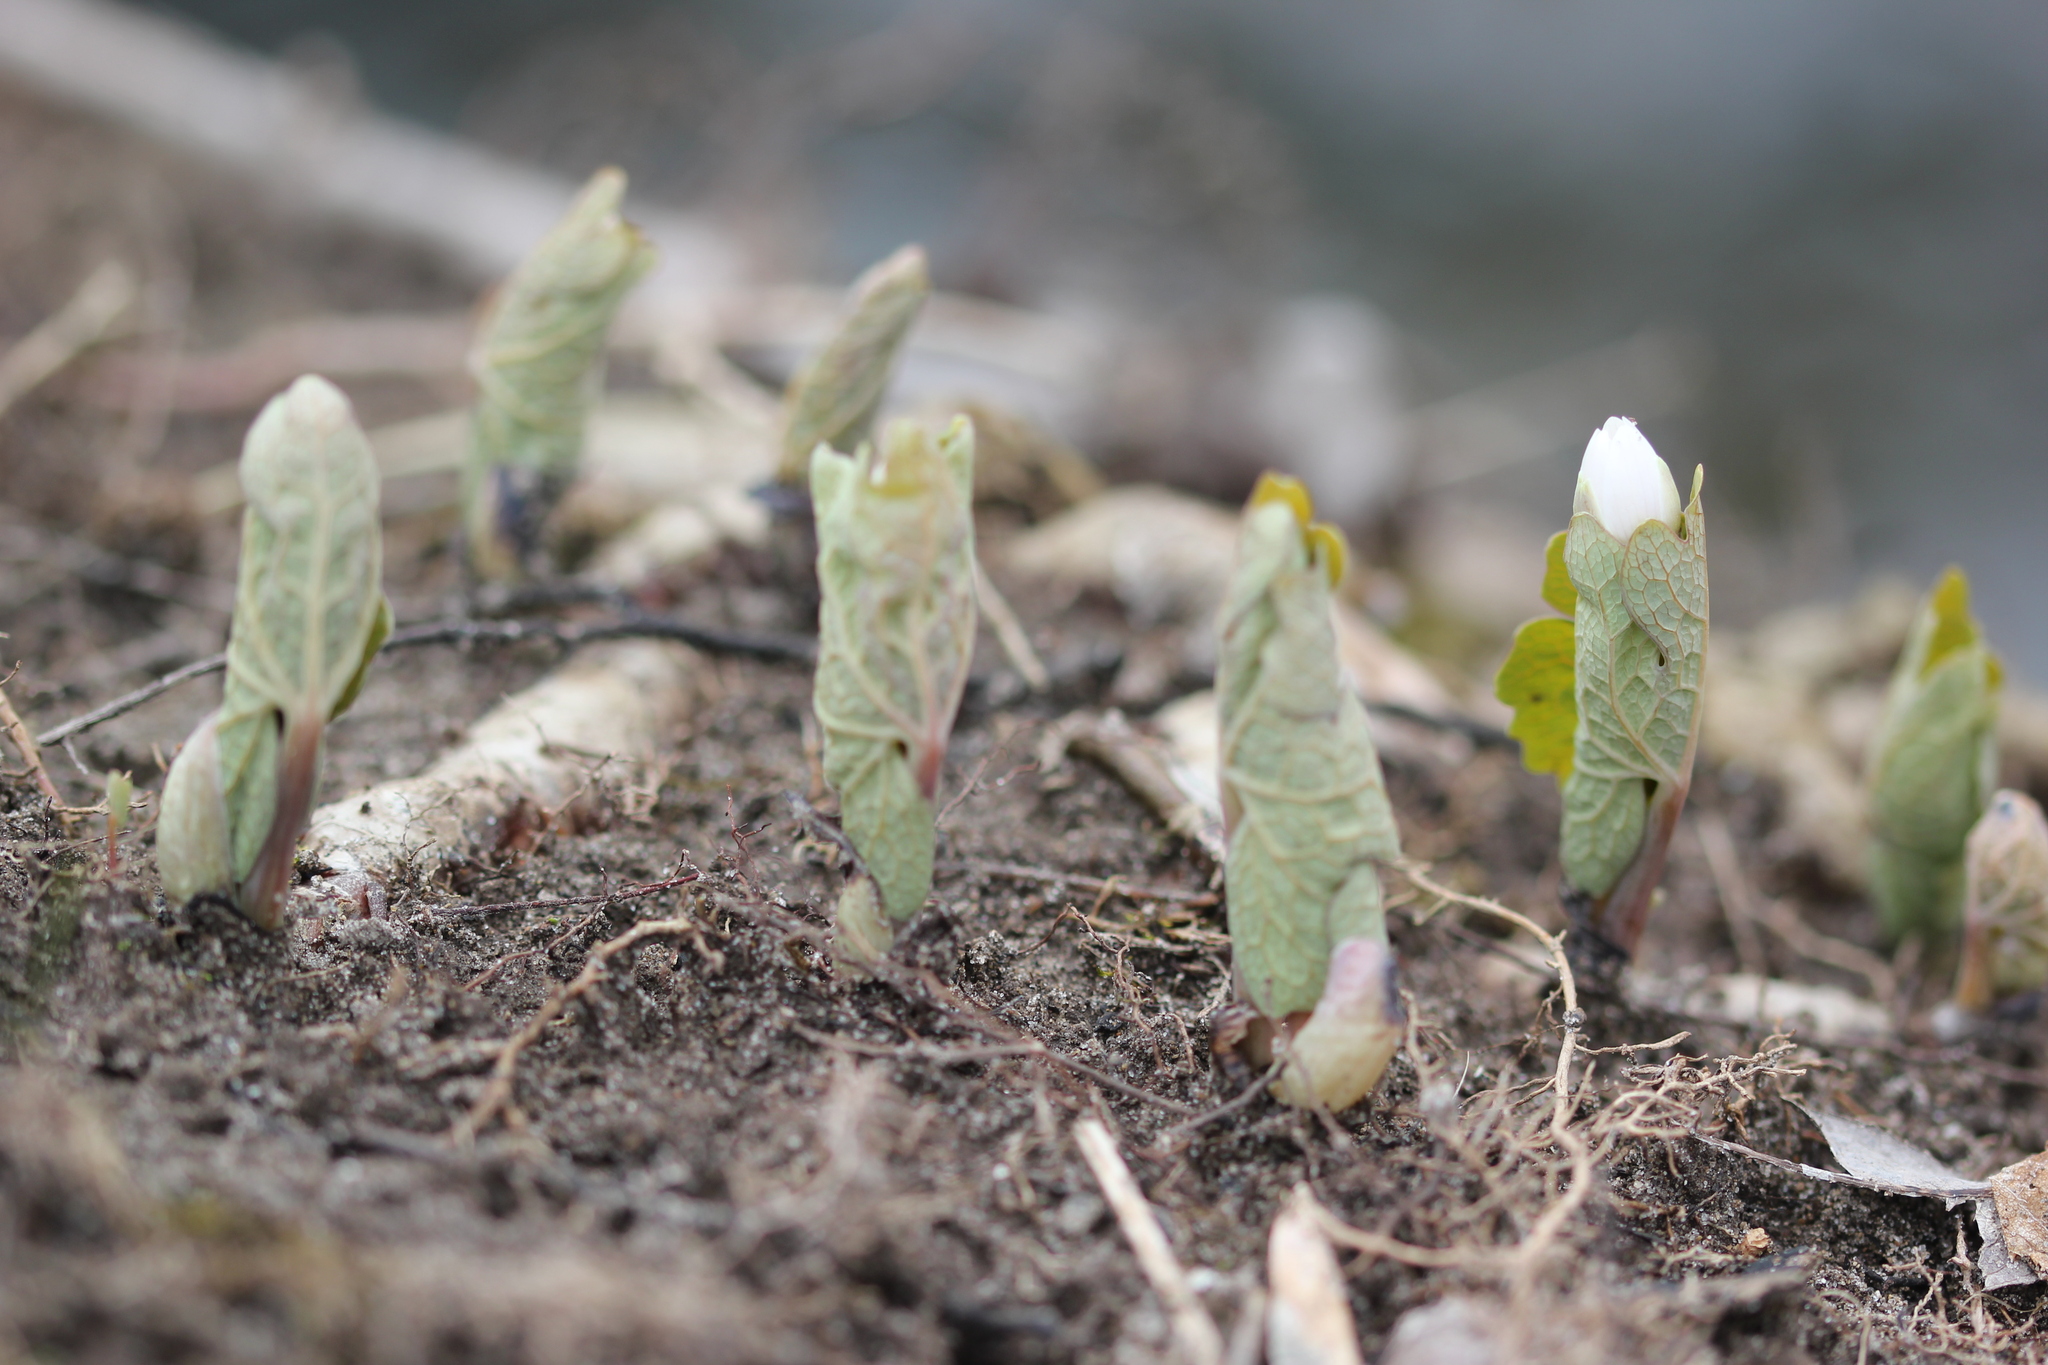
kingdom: Plantae
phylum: Tracheophyta
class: Magnoliopsida
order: Ranunculales
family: Papaveraceae
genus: Sanguinaria
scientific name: Sanguinaria canadensis
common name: Bloodroot
